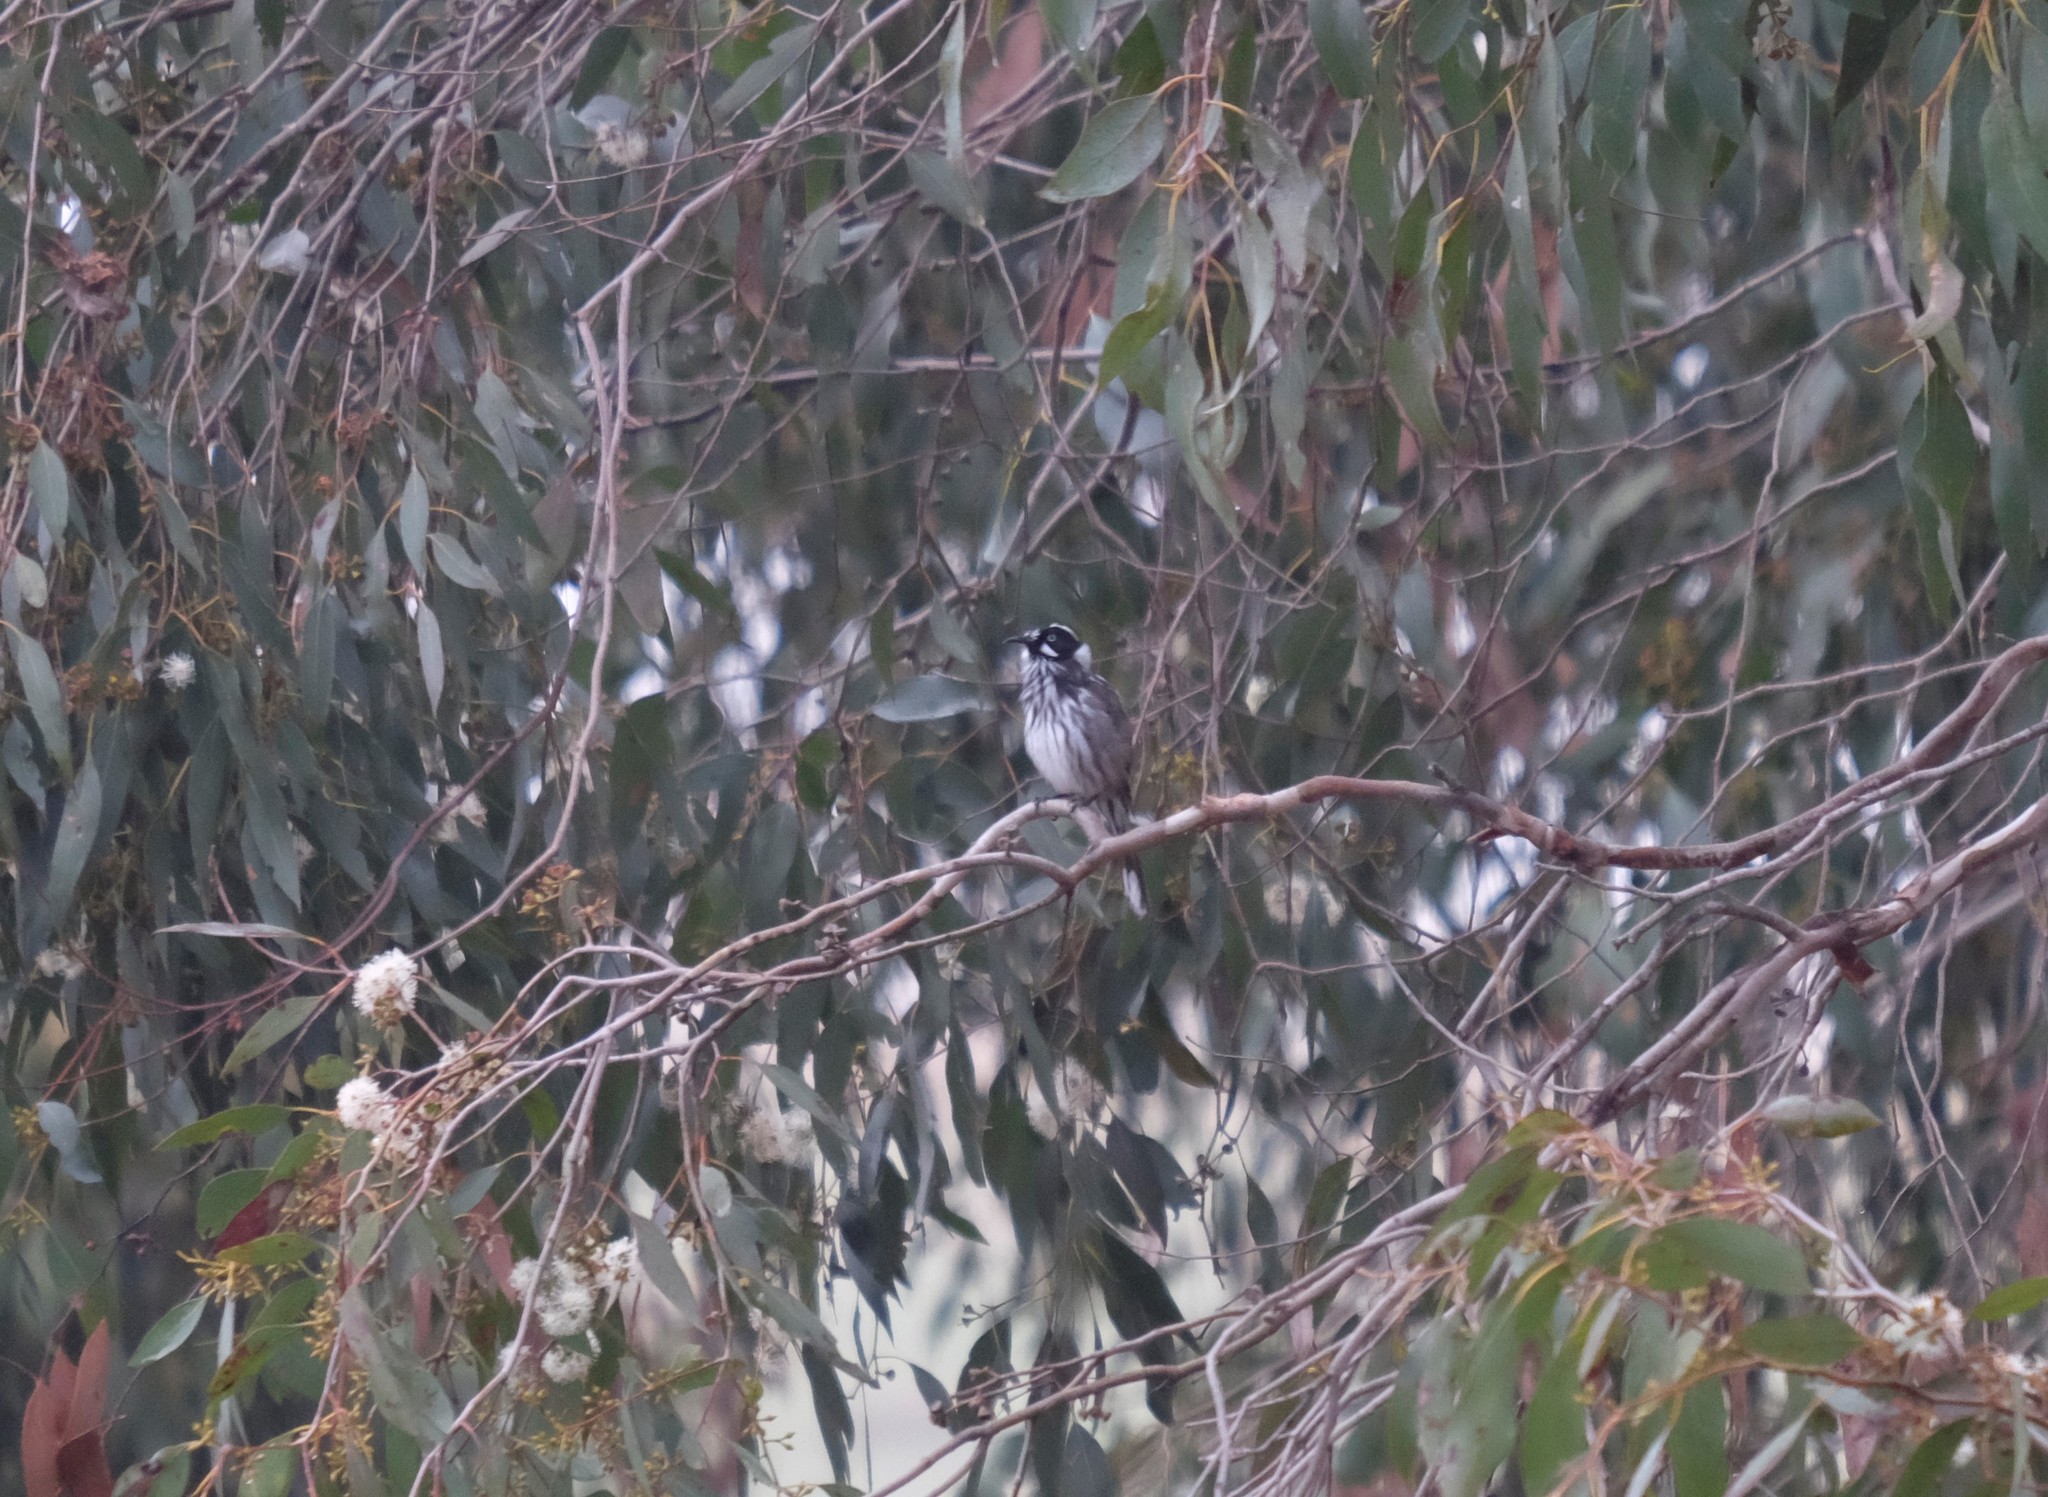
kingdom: Animalia
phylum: Chordata
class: Aves
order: Passeriformes
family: Meliphagidae
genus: Phylidonyris
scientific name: Phylidonyris novaehollandiae
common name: New holland honeyeater
